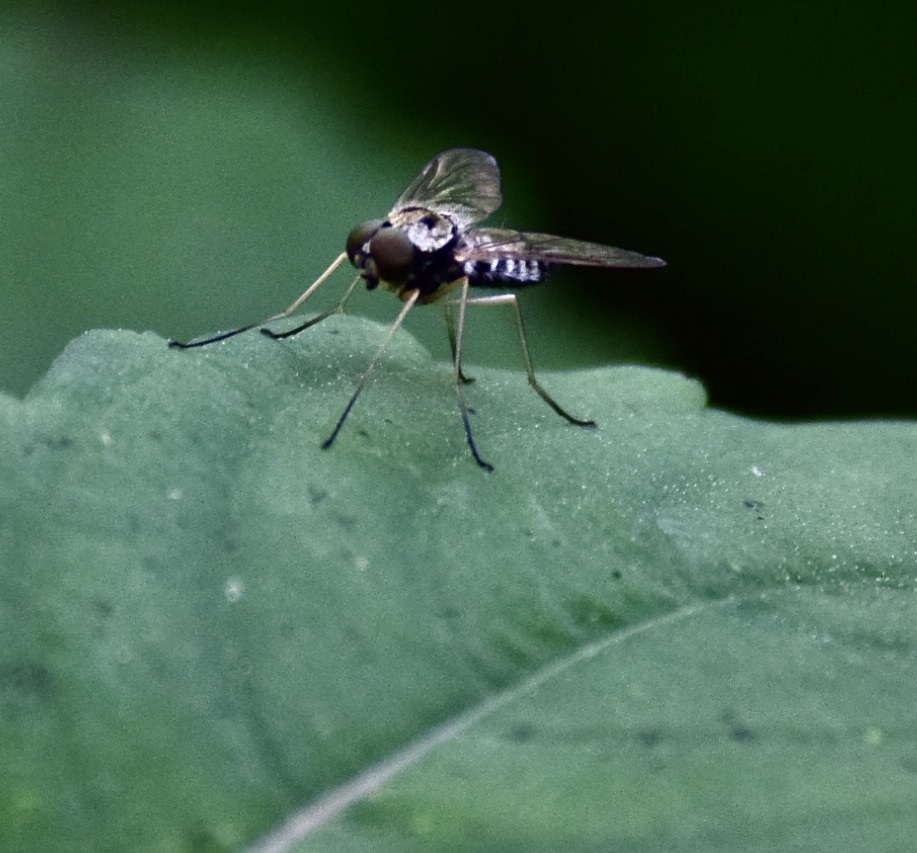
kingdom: Animalia
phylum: Arthropoda
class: Insecta
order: Diptera
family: Rhagionidae
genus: Chrysopilus
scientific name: Chrysopilus ornatus
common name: Ornate snipe fly
